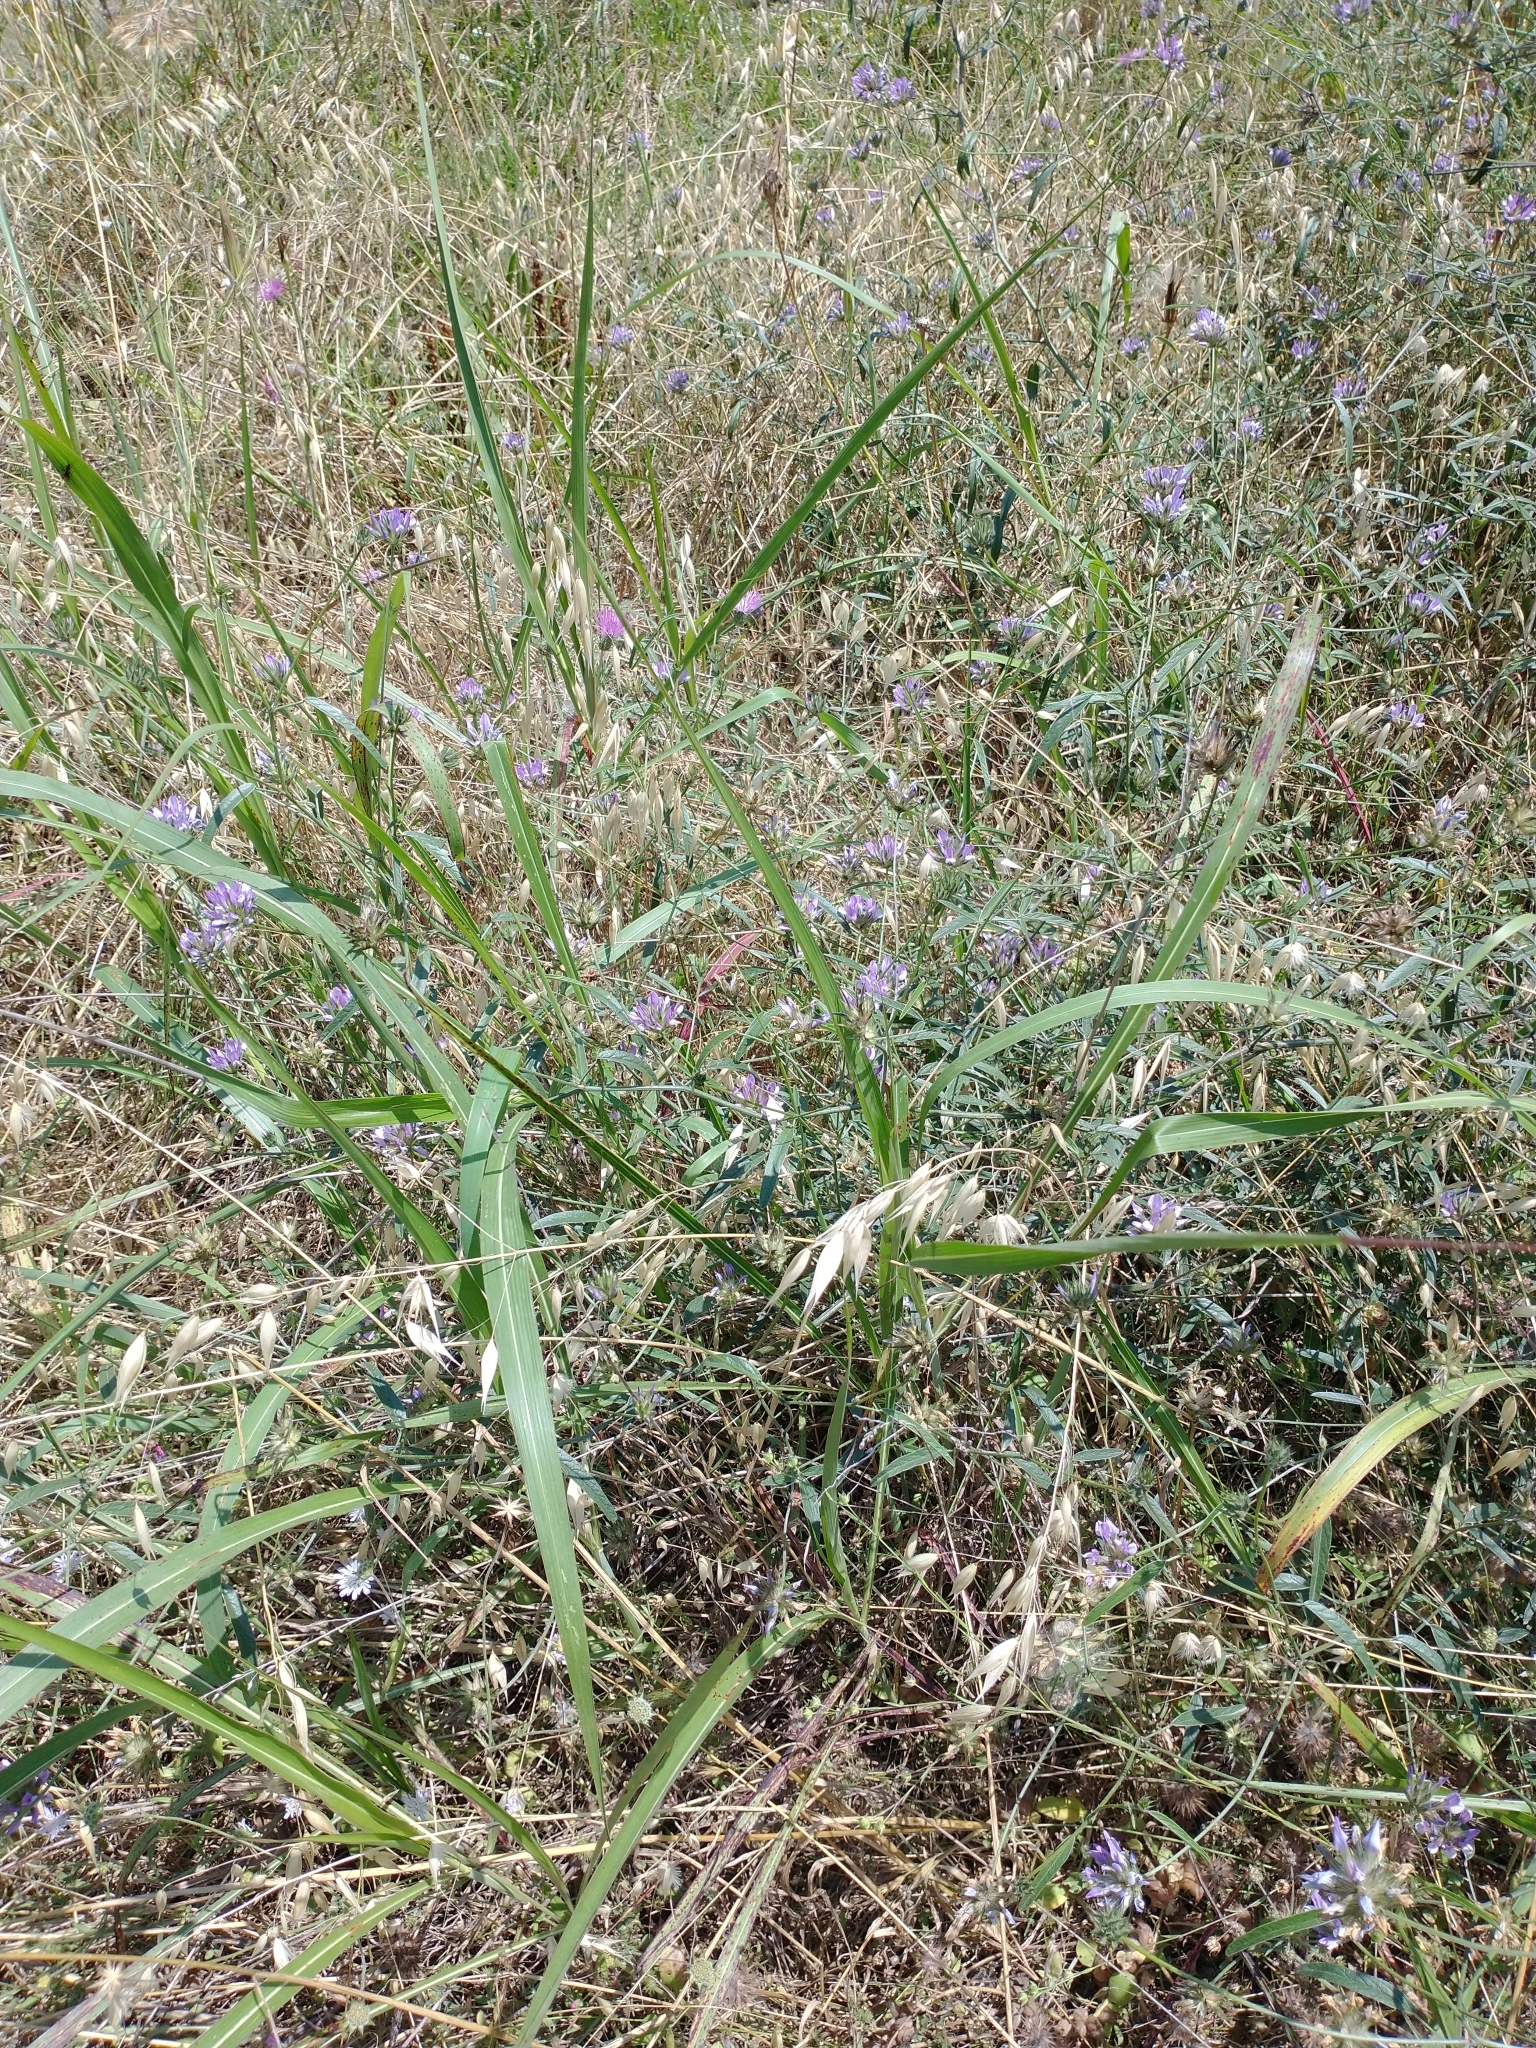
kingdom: Plantae
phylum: Tracheophyta
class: Magnoliopsida
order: Fabales
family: Fabaceae
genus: Bituminaria
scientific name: Bituminaria bituminosa
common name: Arabian pea
